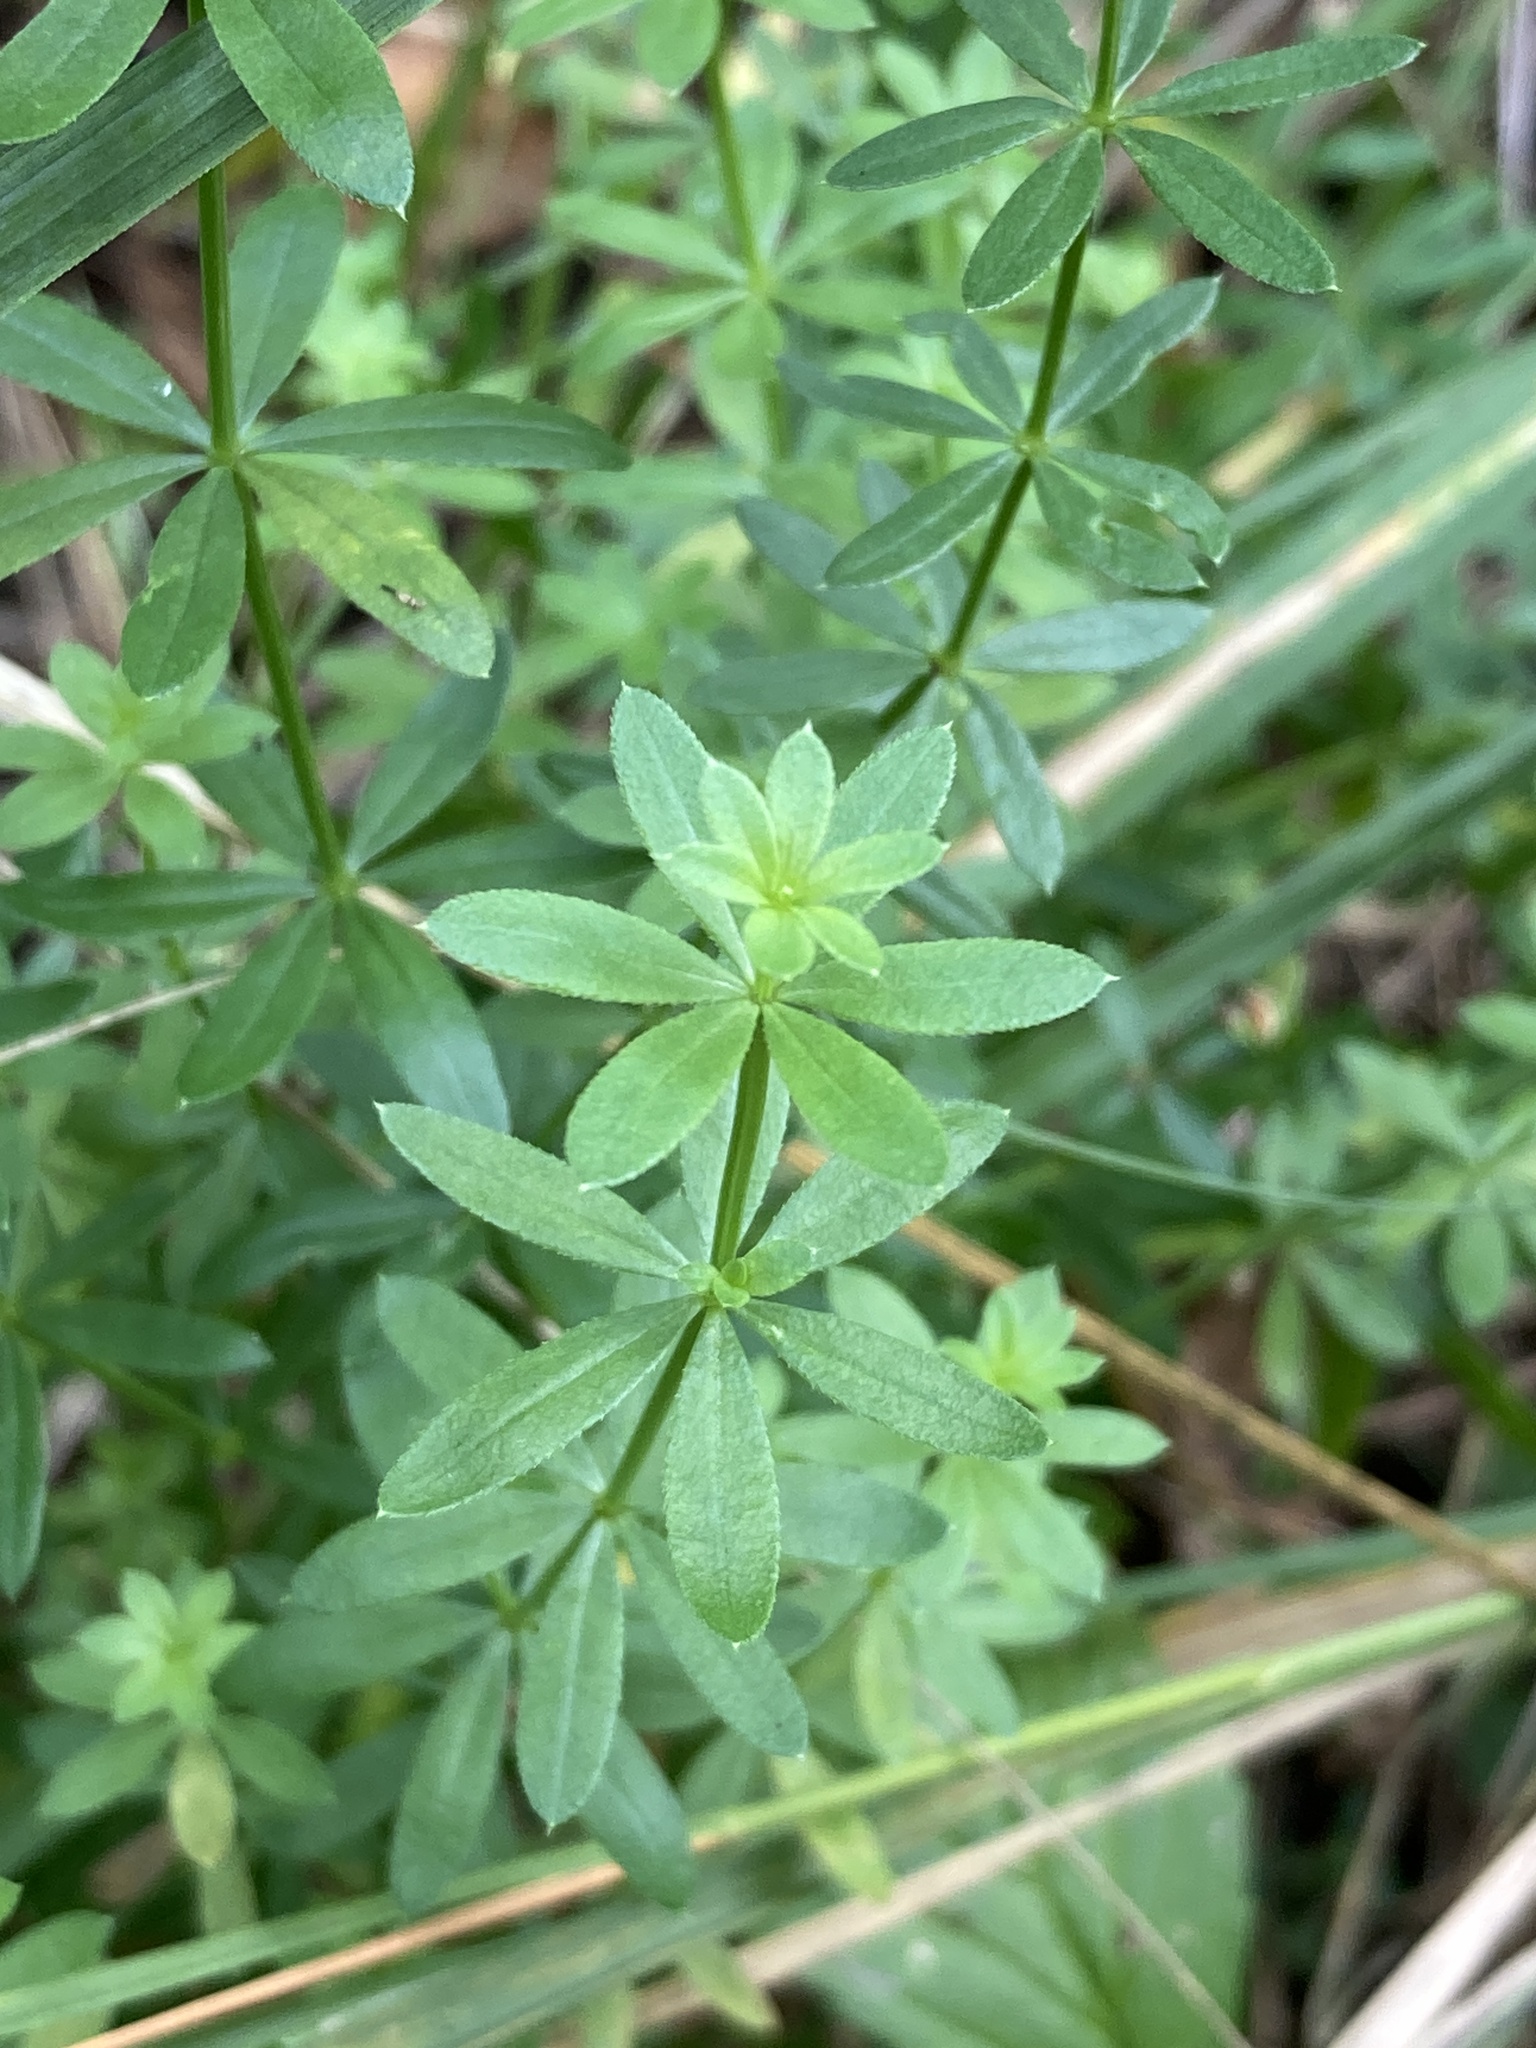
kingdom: Plantae
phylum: Tracheophyta
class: Magnoliopsida
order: Gentianales
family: Rubiaceae
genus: Galium
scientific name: Galium mollugo
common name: Hedge bedstraw
